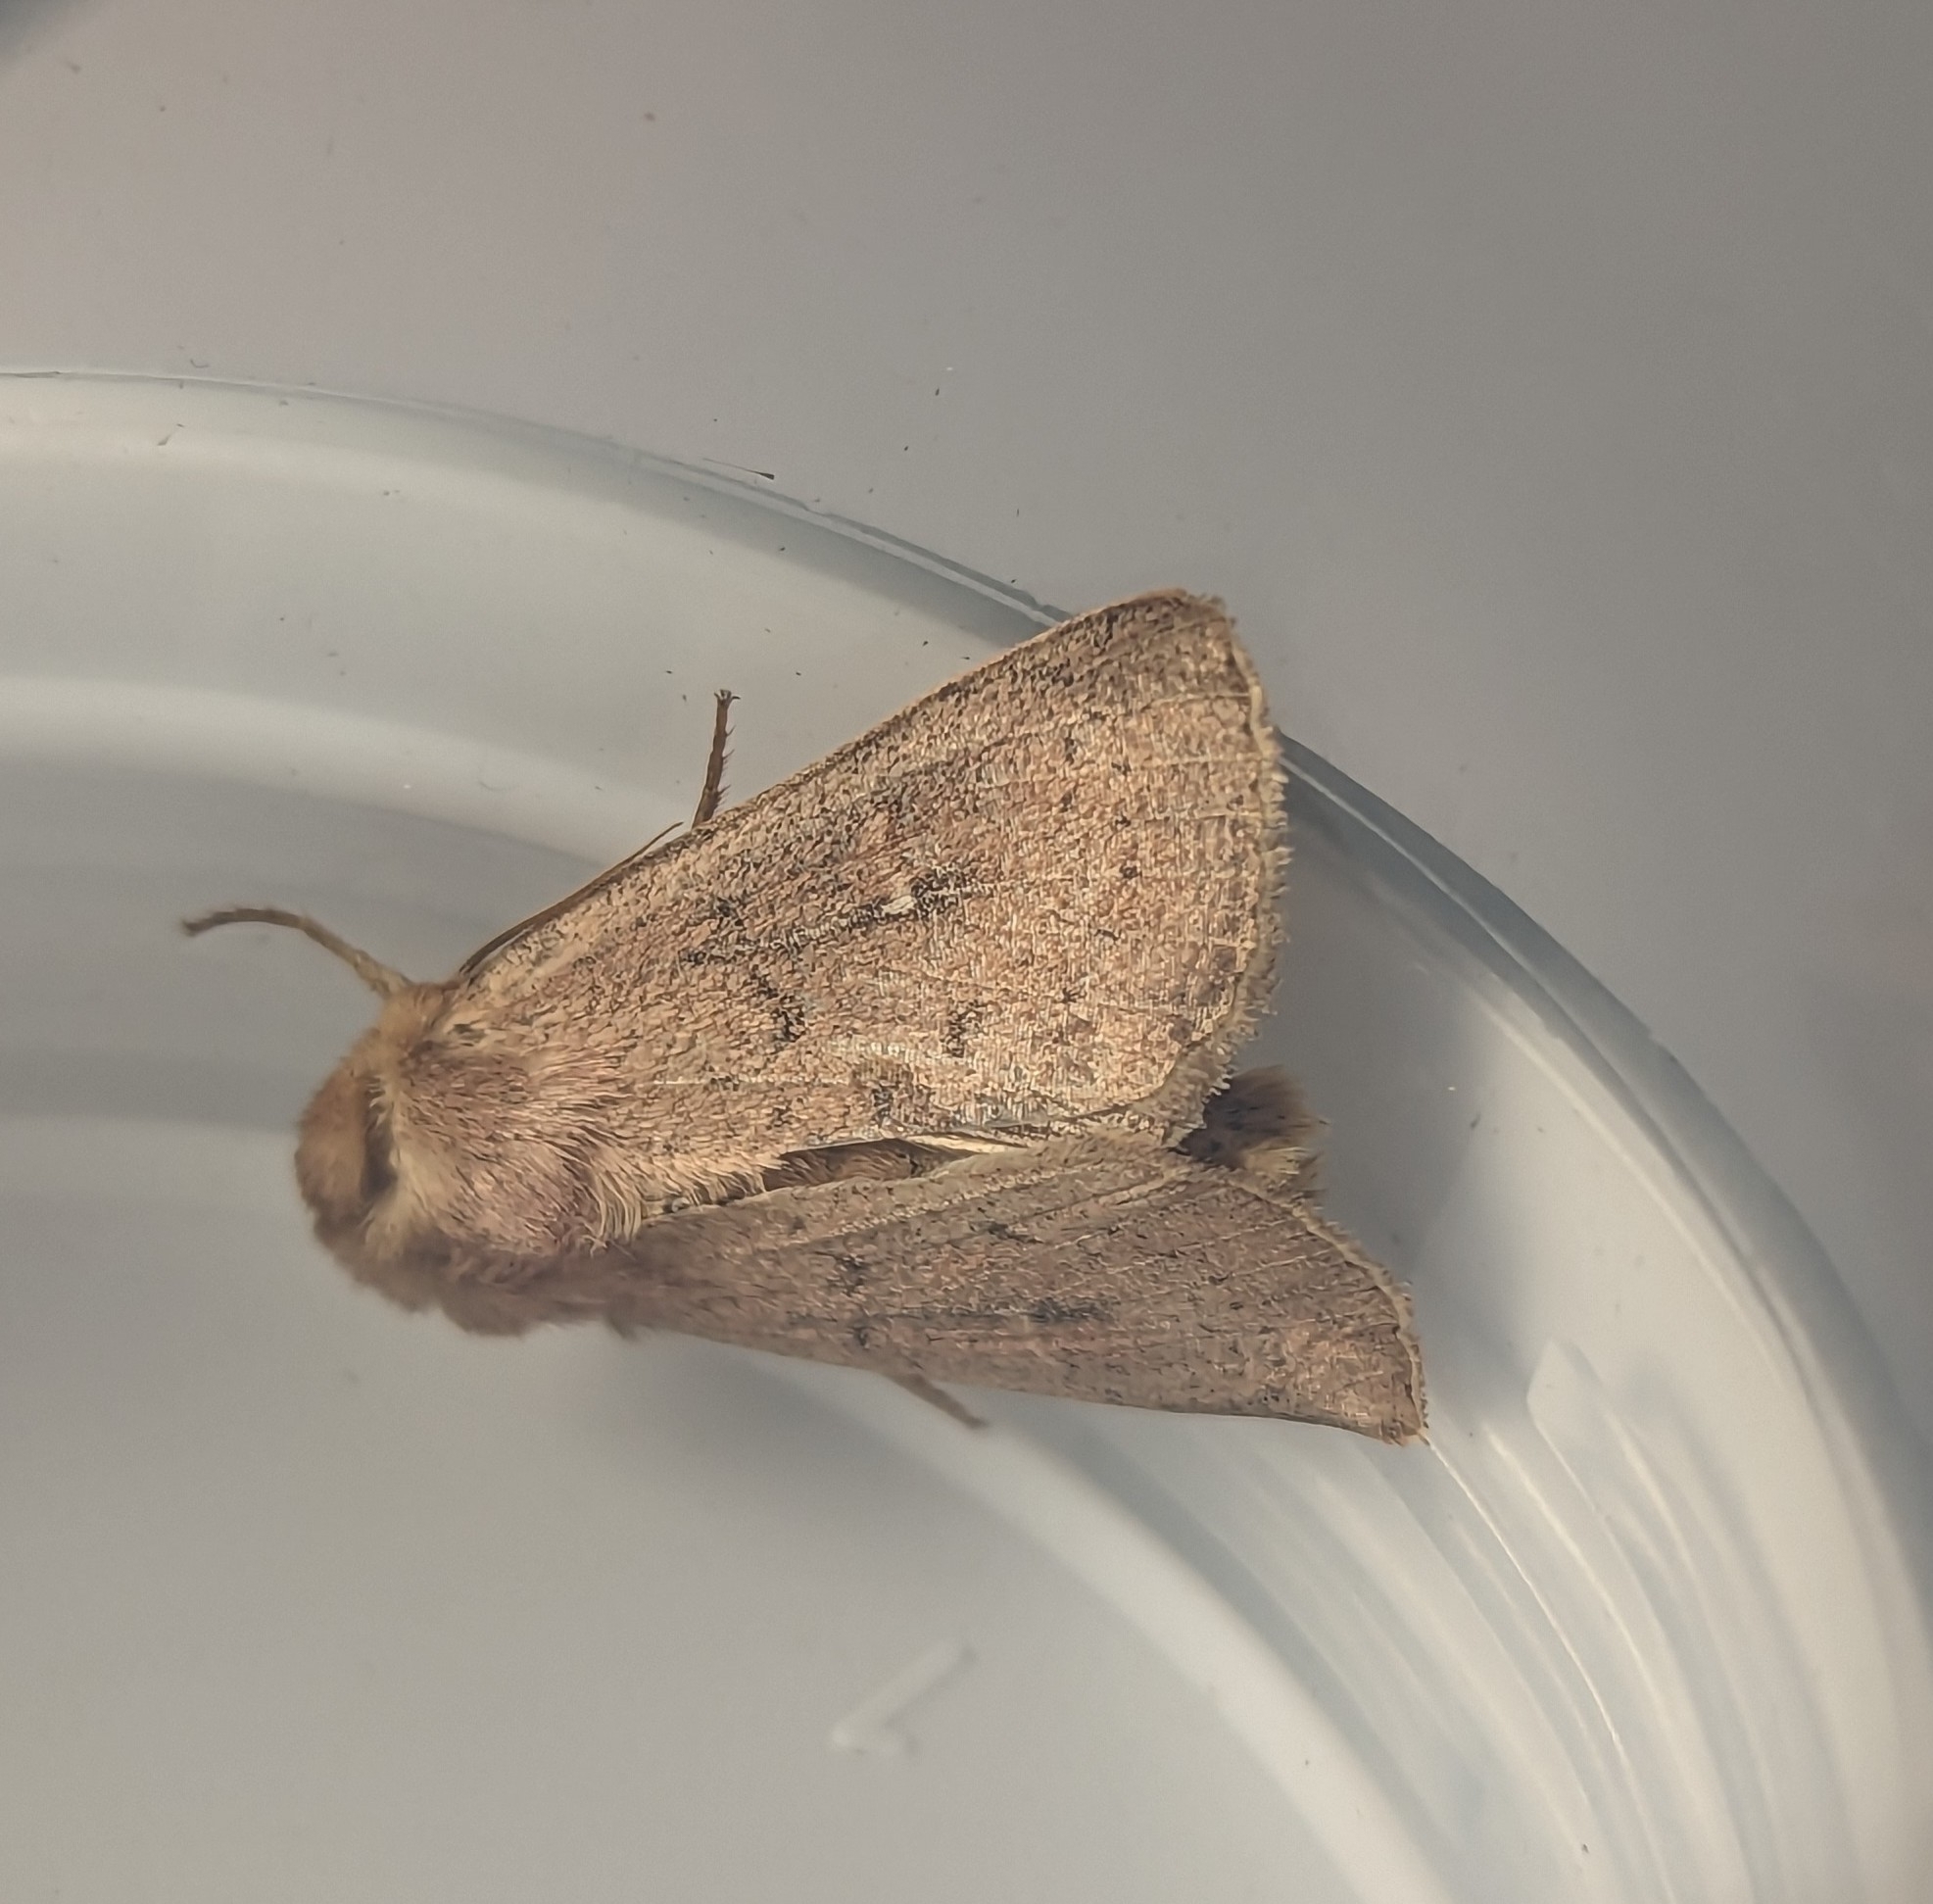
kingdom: Animalia
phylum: Arthropoda
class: Insecta
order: Lepidoptera
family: Noctuidae
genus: Mythimna
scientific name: Mythimna ferrago
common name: Clay
